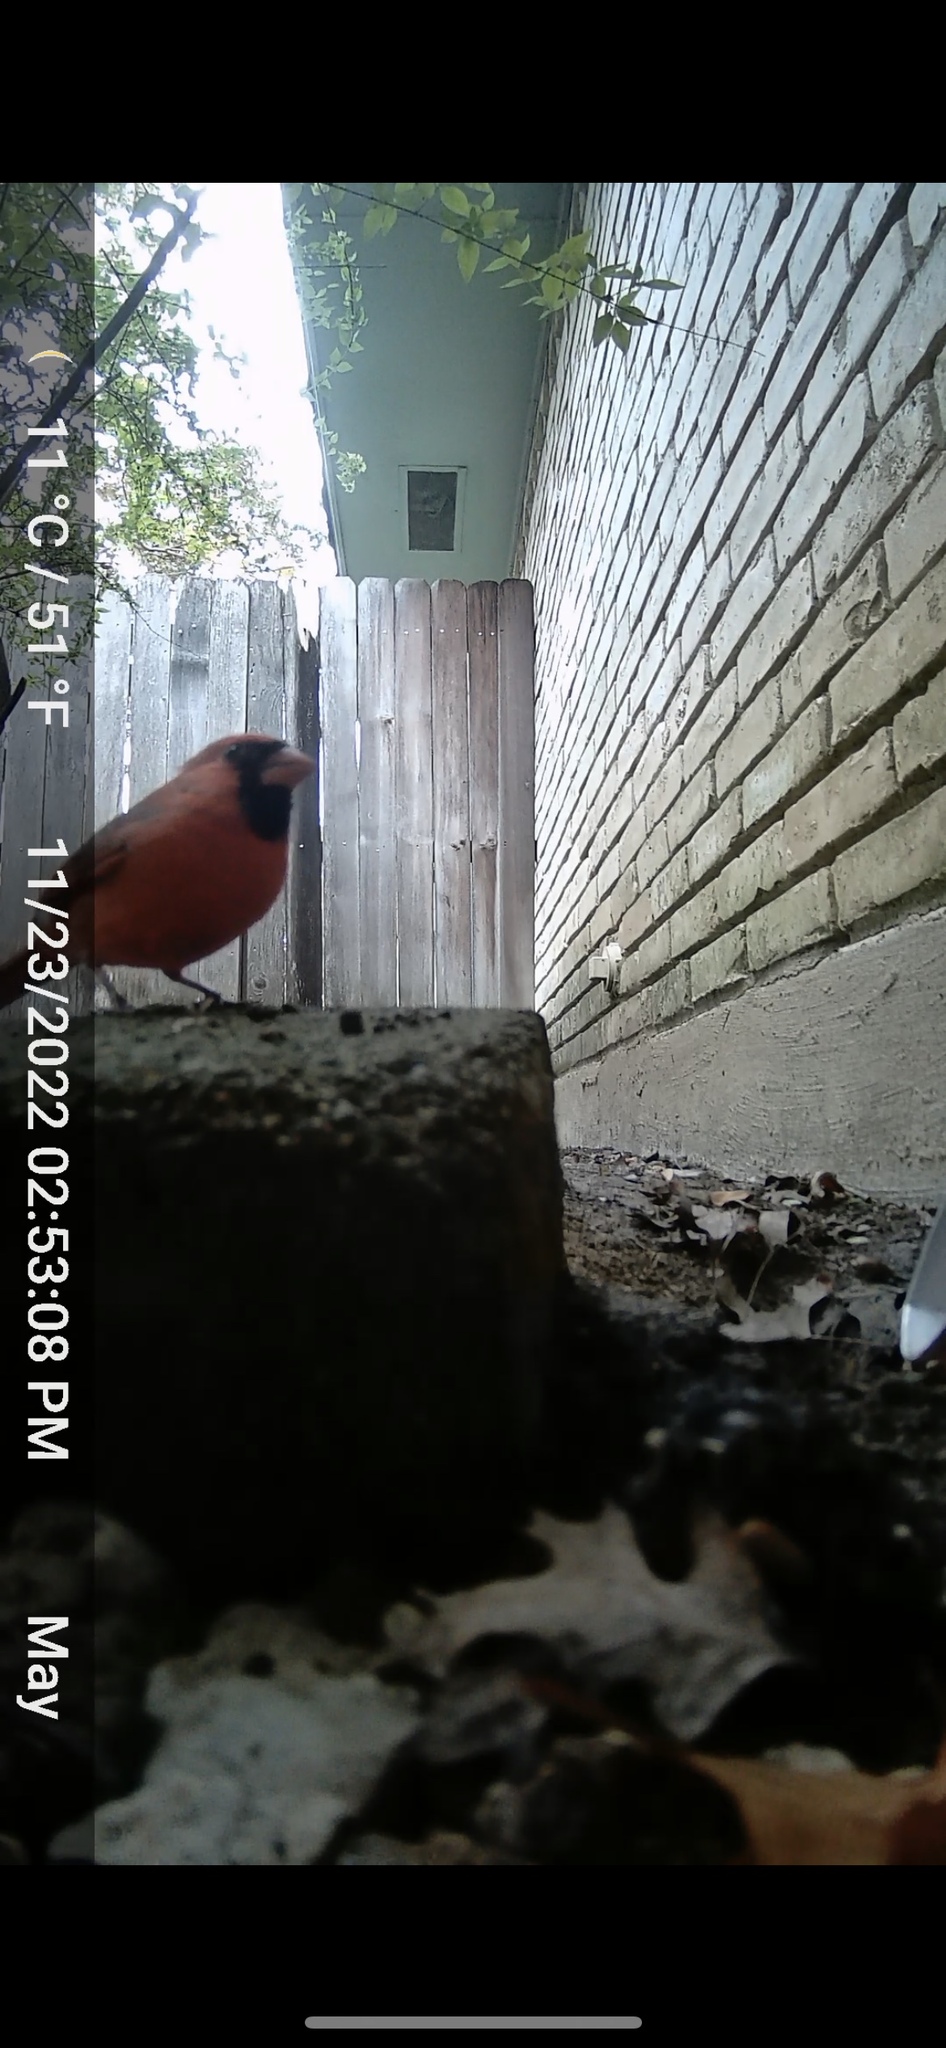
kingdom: Animalia
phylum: Chordata
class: Aves
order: Passeriformes
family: Cardinalidae
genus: Cardinalis
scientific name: Cardinalis cardinalis
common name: Northern cardinal
